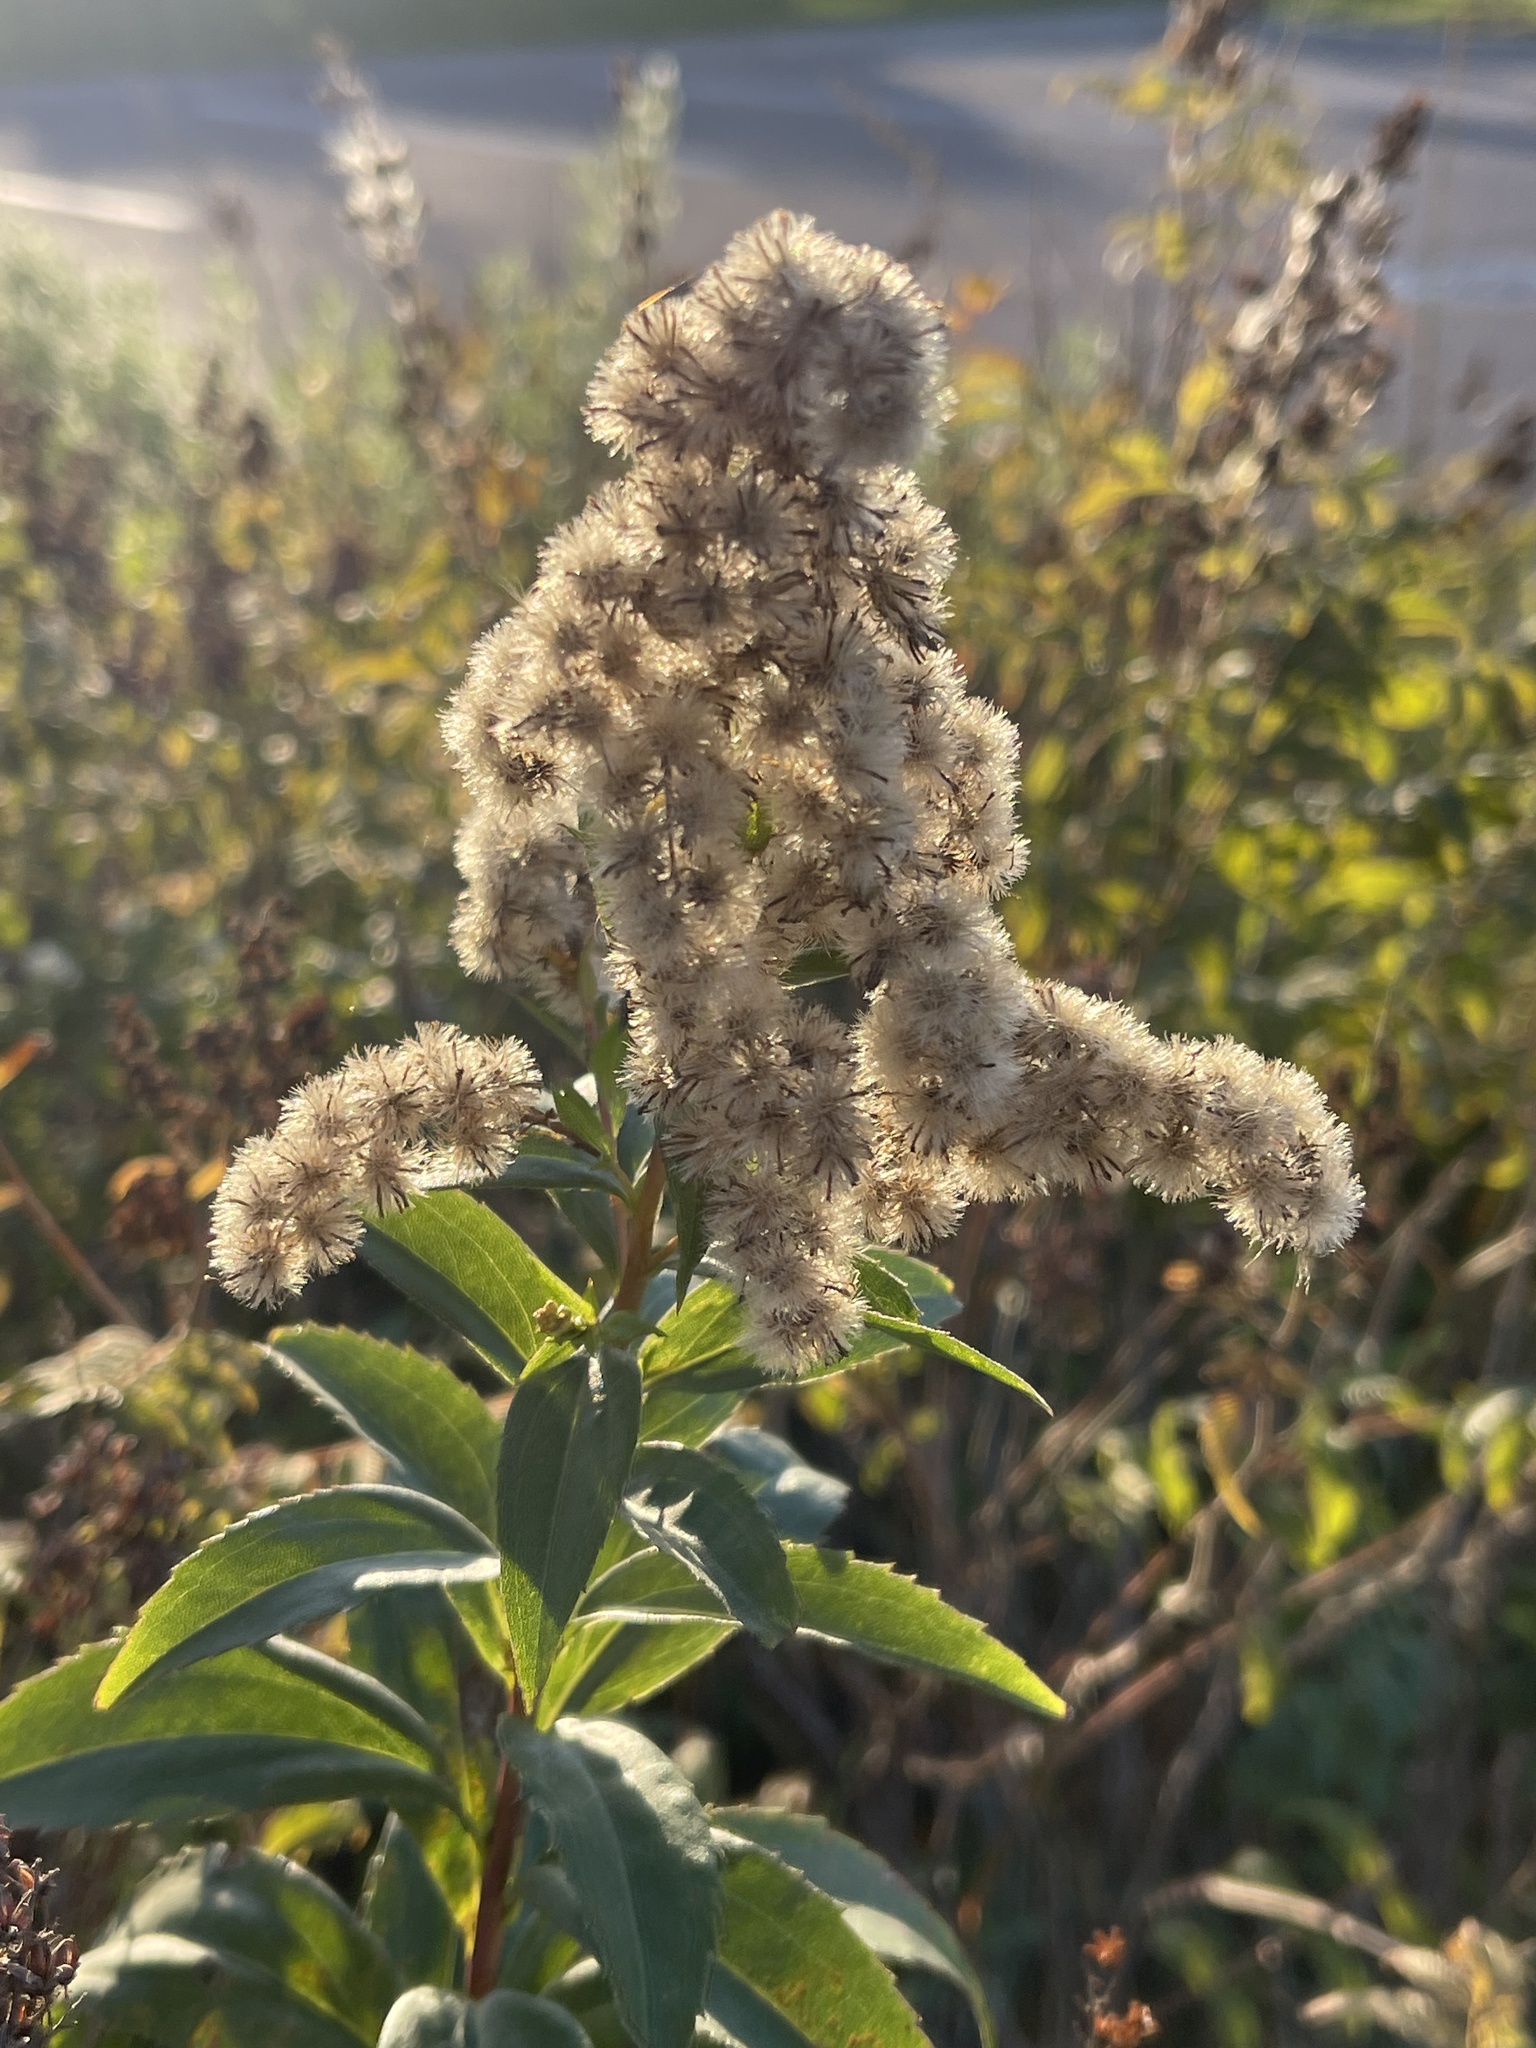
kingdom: Plantae
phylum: Tracheophyta
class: Magnoliopsida
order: Asterales
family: Asteraceae
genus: Solidago
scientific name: Solidago canadensis
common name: Canada goldenrod
